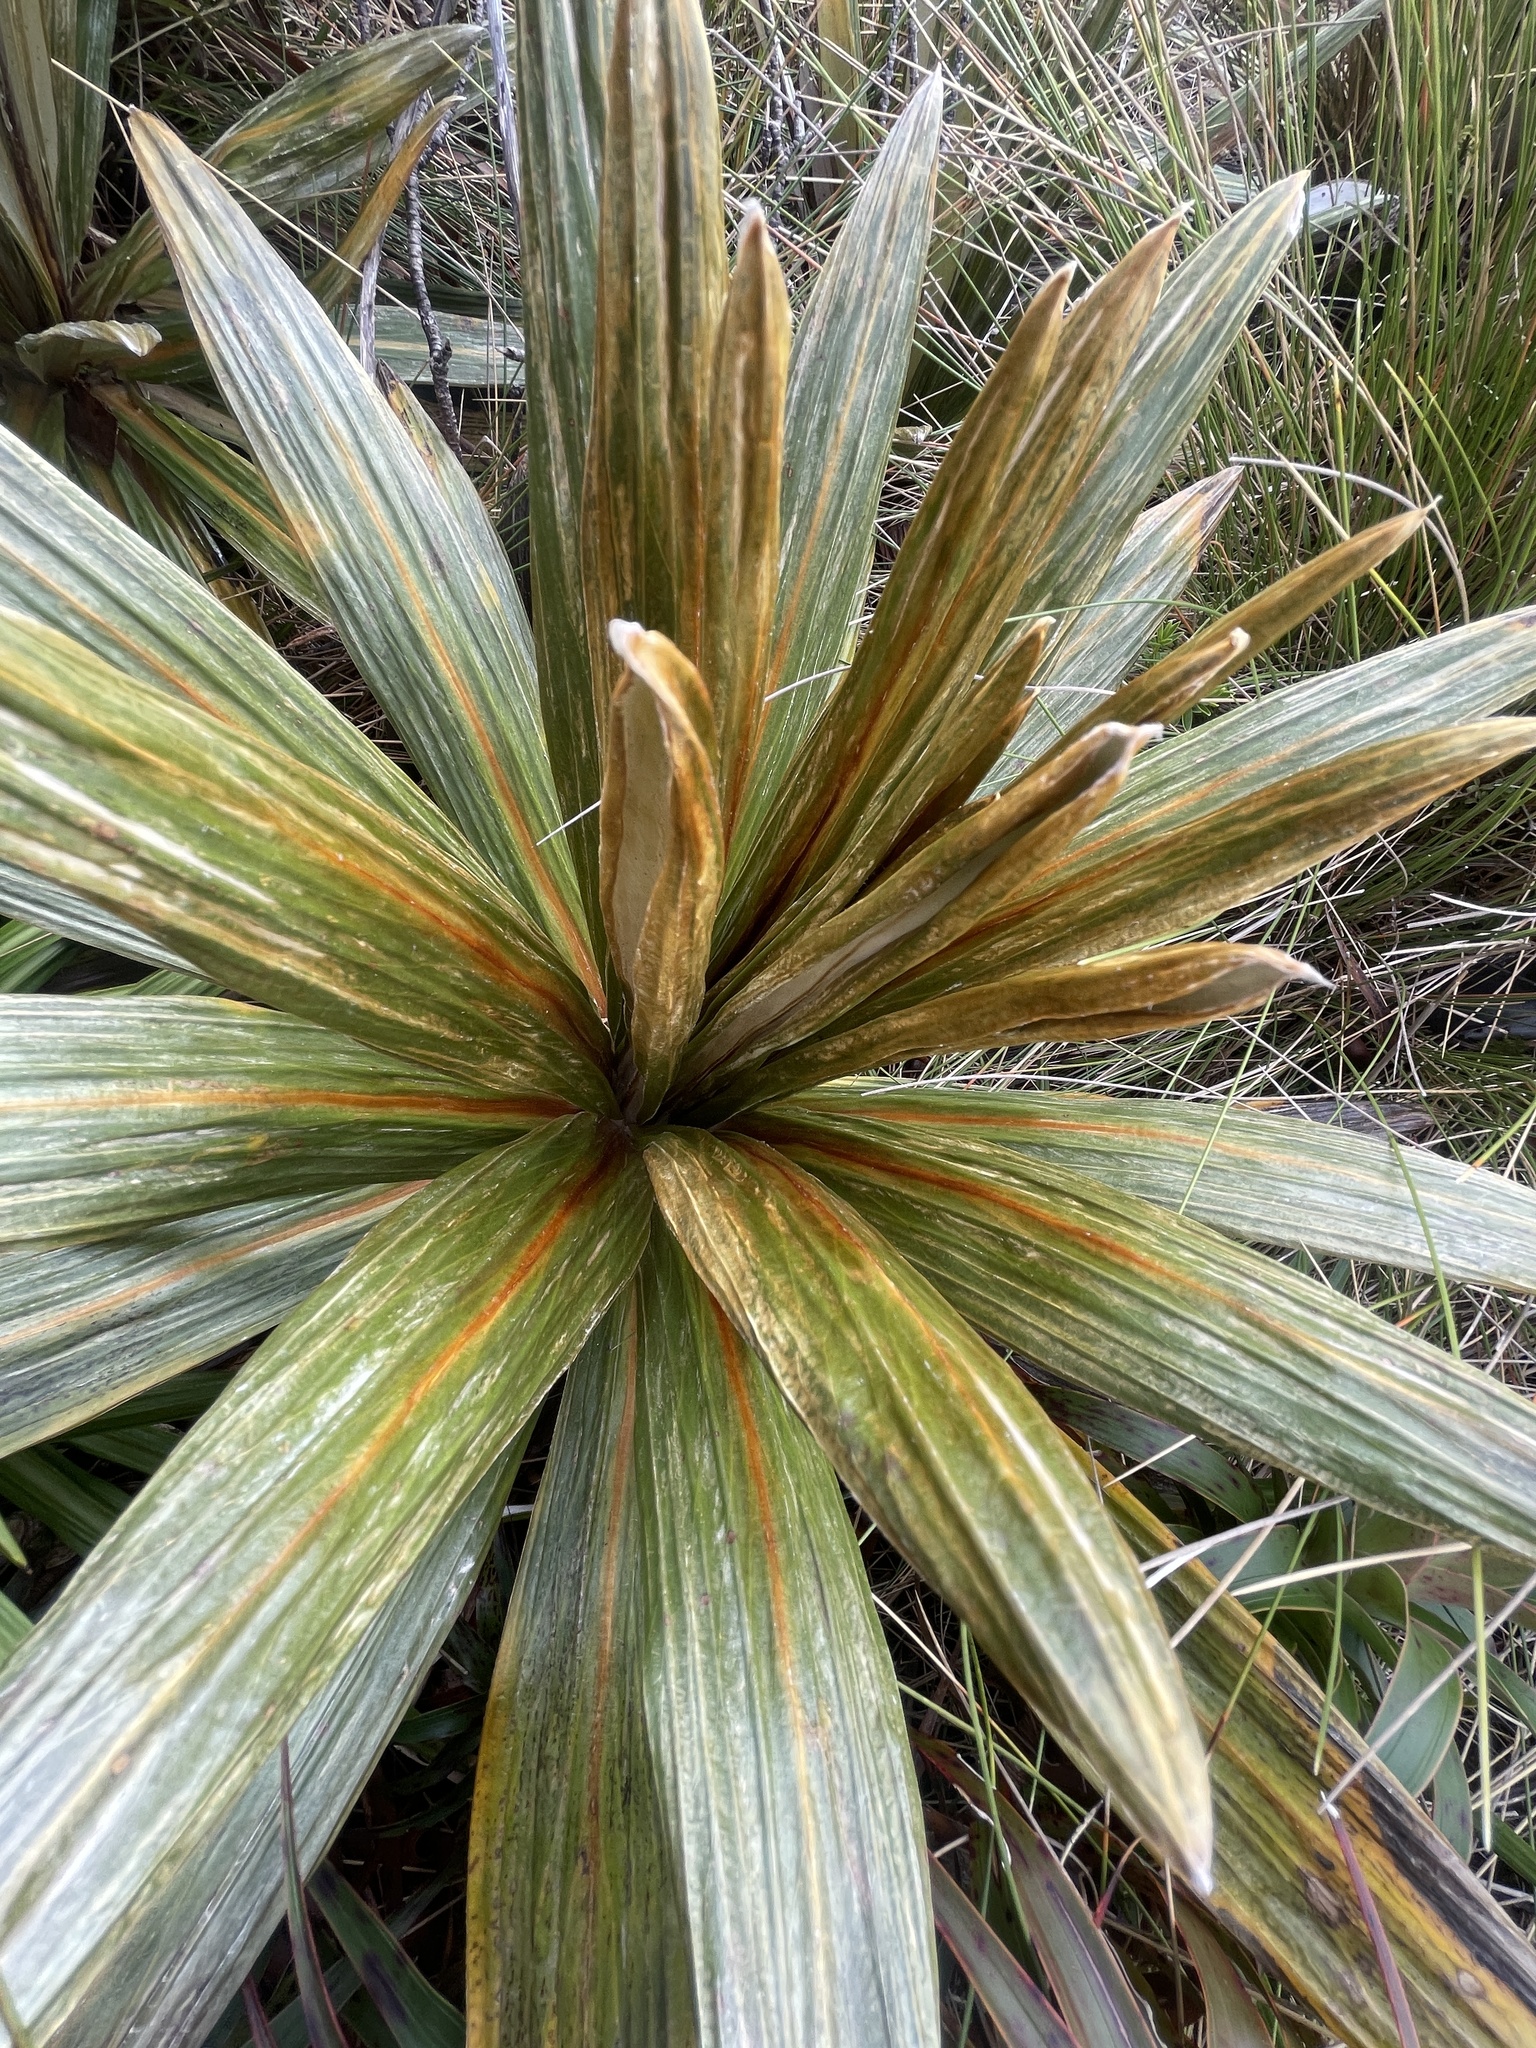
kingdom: Plantae
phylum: Tracheophyta
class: Magnoliopsida
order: Asterales
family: Asteraceae
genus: Celmisia
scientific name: Celmisia coriacea
